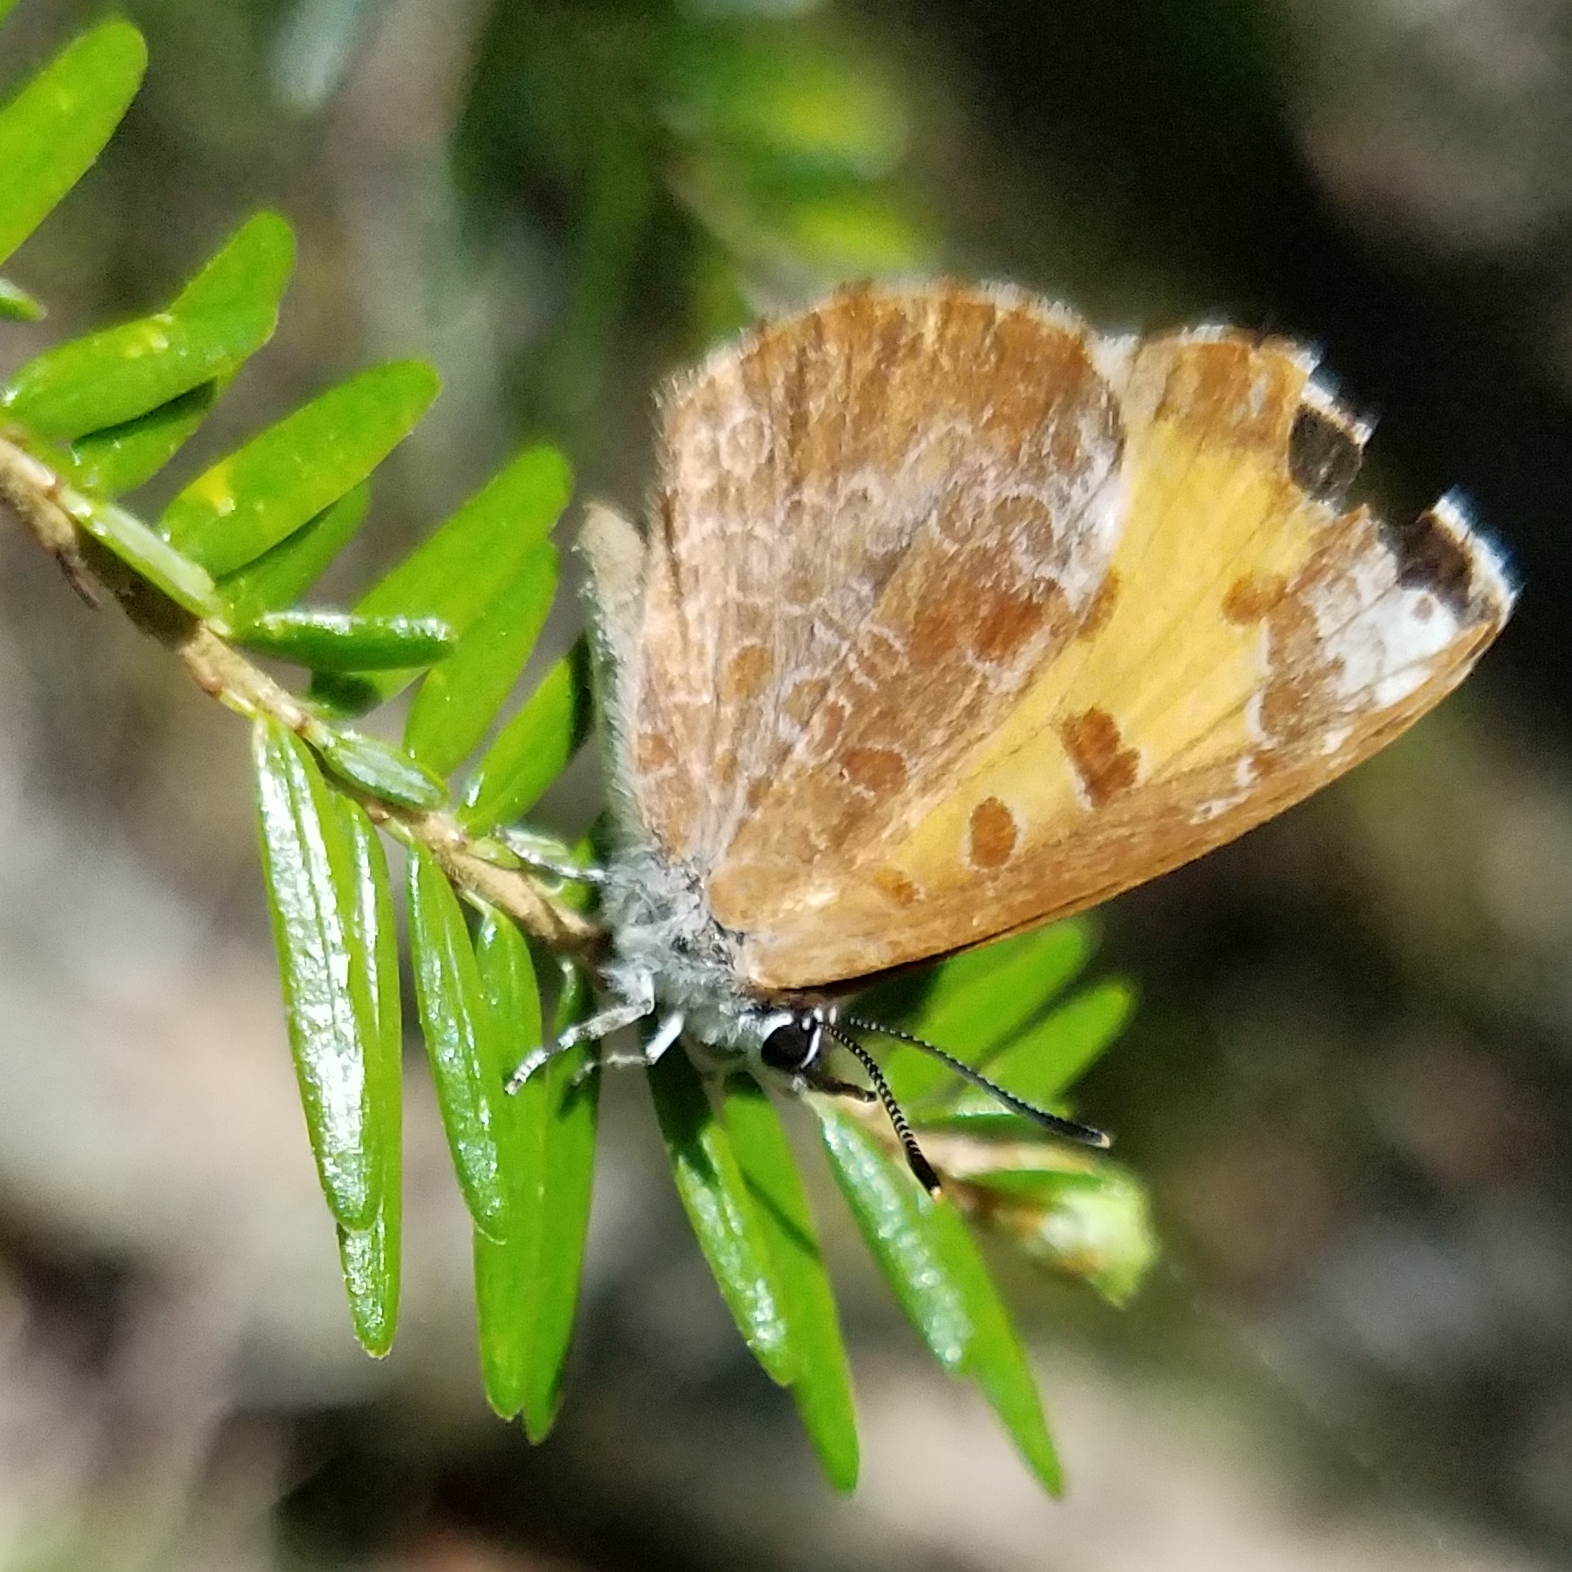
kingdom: Animalia
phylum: Arthropoda
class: Insecta
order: Lepidoptera
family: Lycaenidae
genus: Feniseca
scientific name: Feniseca tarquinius
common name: Harvester
